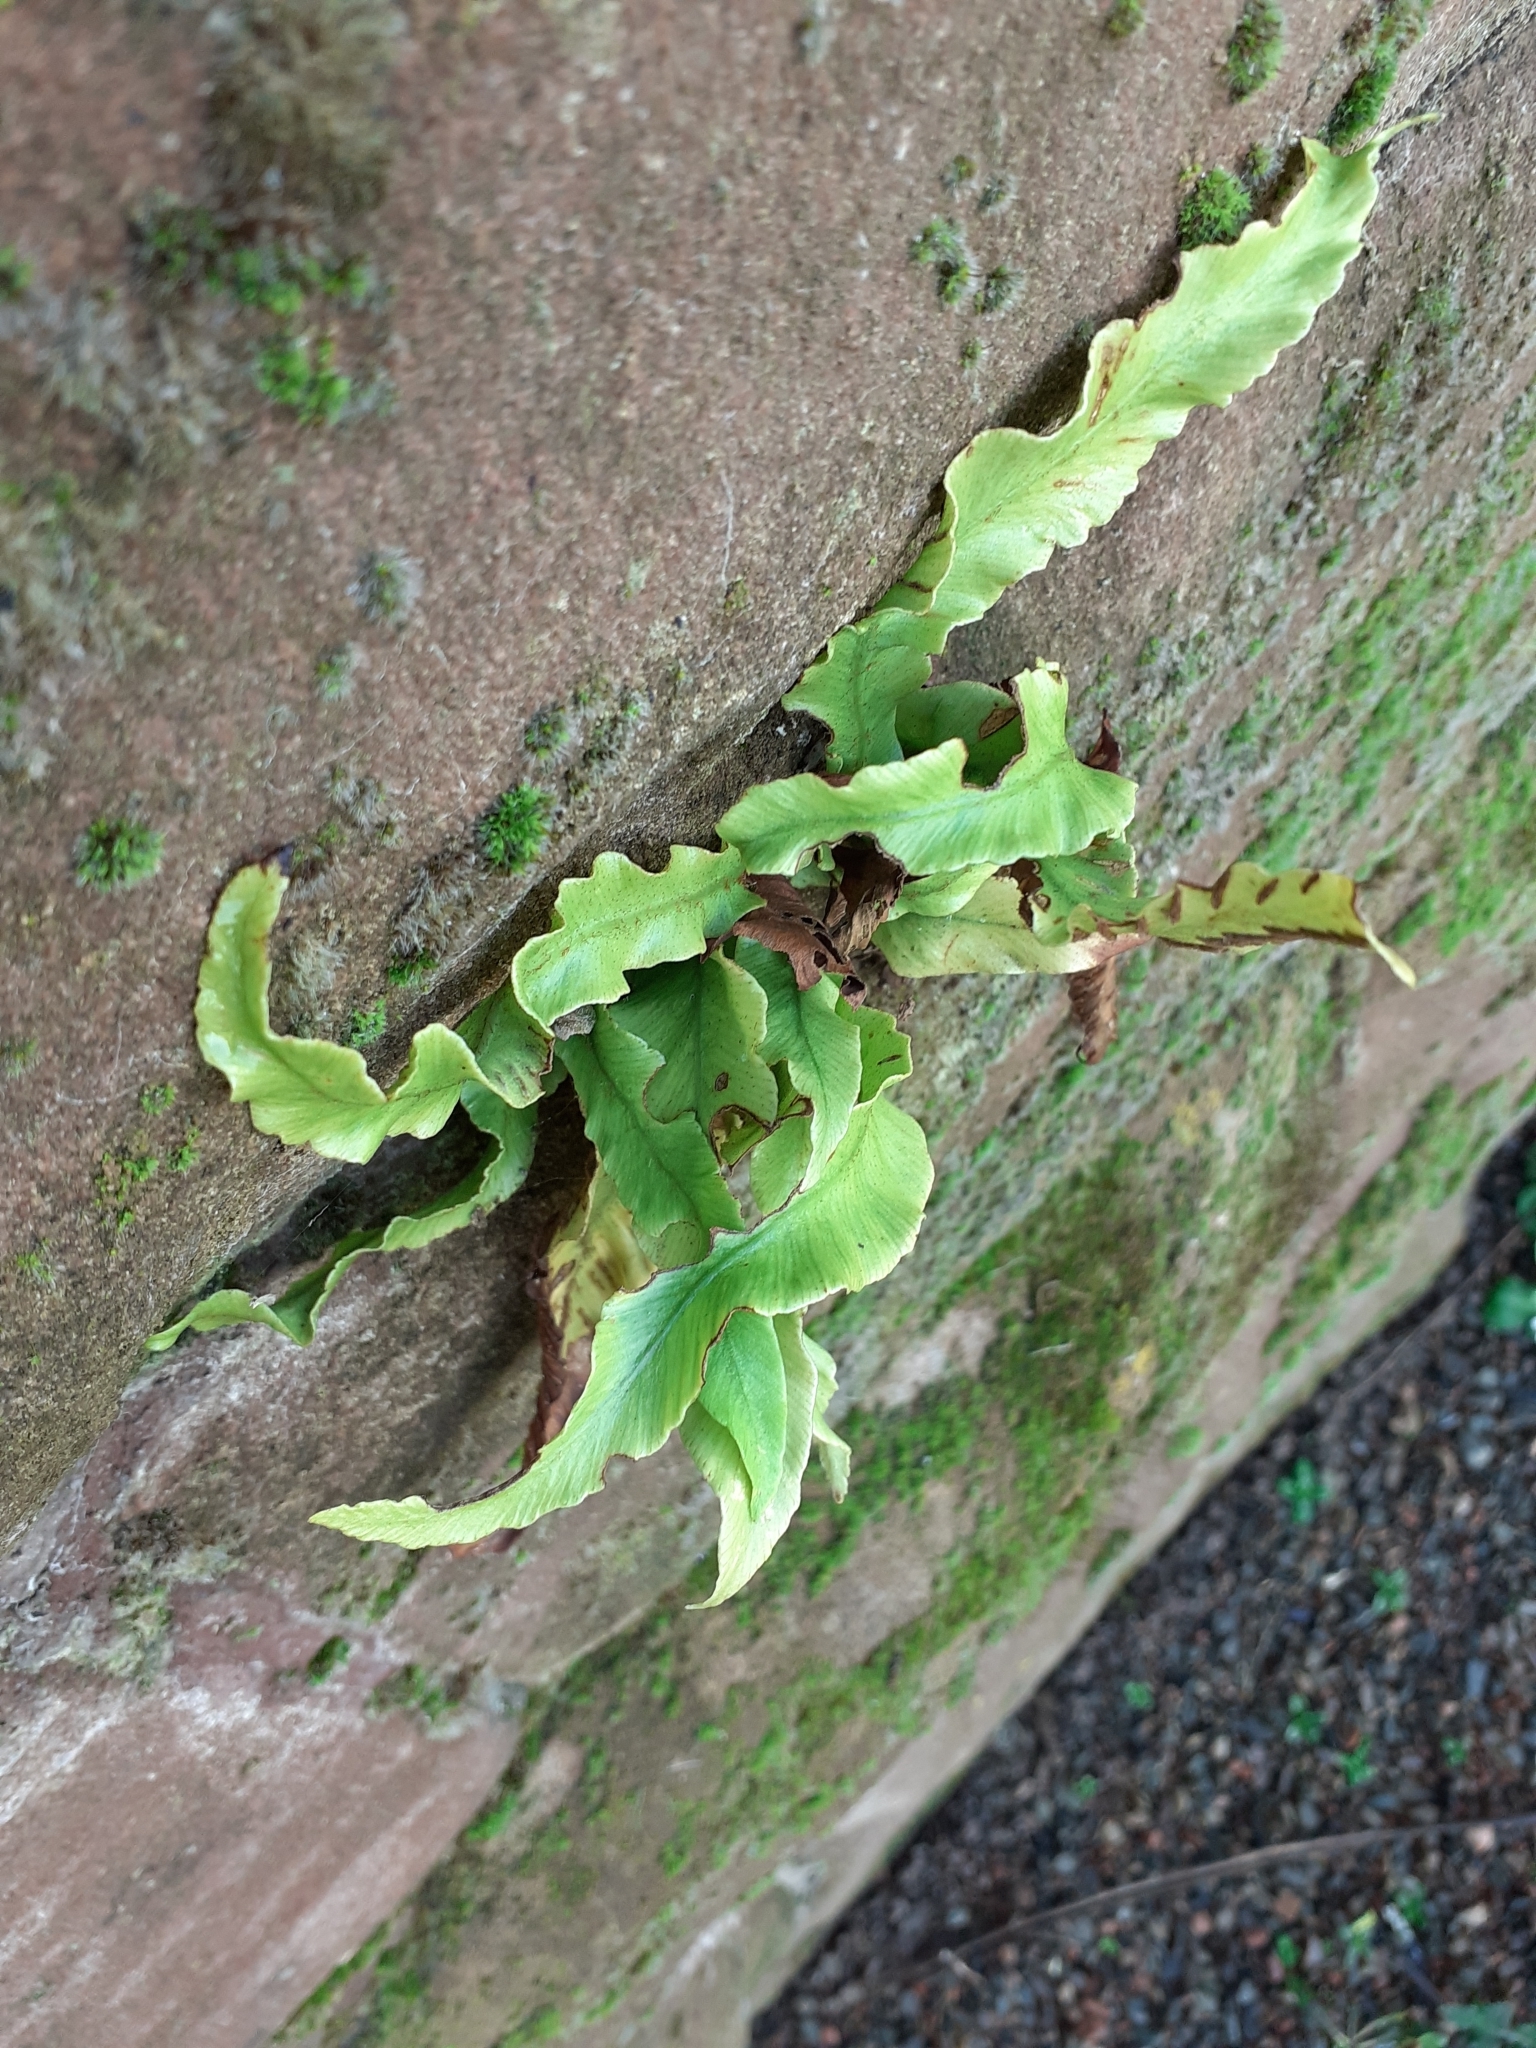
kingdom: Plantae
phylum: Tracheophyta
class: Polypodiopsida
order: Polypodiales
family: Aspleniaceae
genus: Asplenium
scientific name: Asplenium scolopendrium
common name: Hart's-tongue fern
